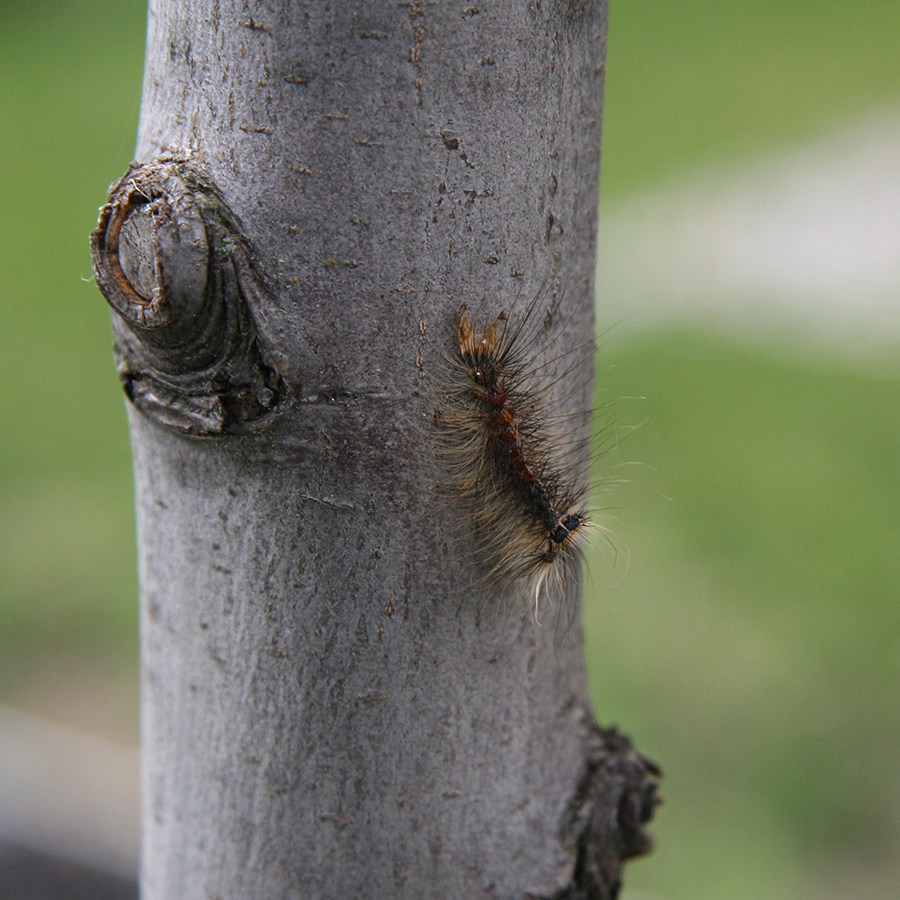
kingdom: Animalia
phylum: Arthropoda
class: Insecta
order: Lepidoptera
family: Erebidae
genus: Lymantria
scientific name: Lymantria dispar
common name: Gypsy moth
